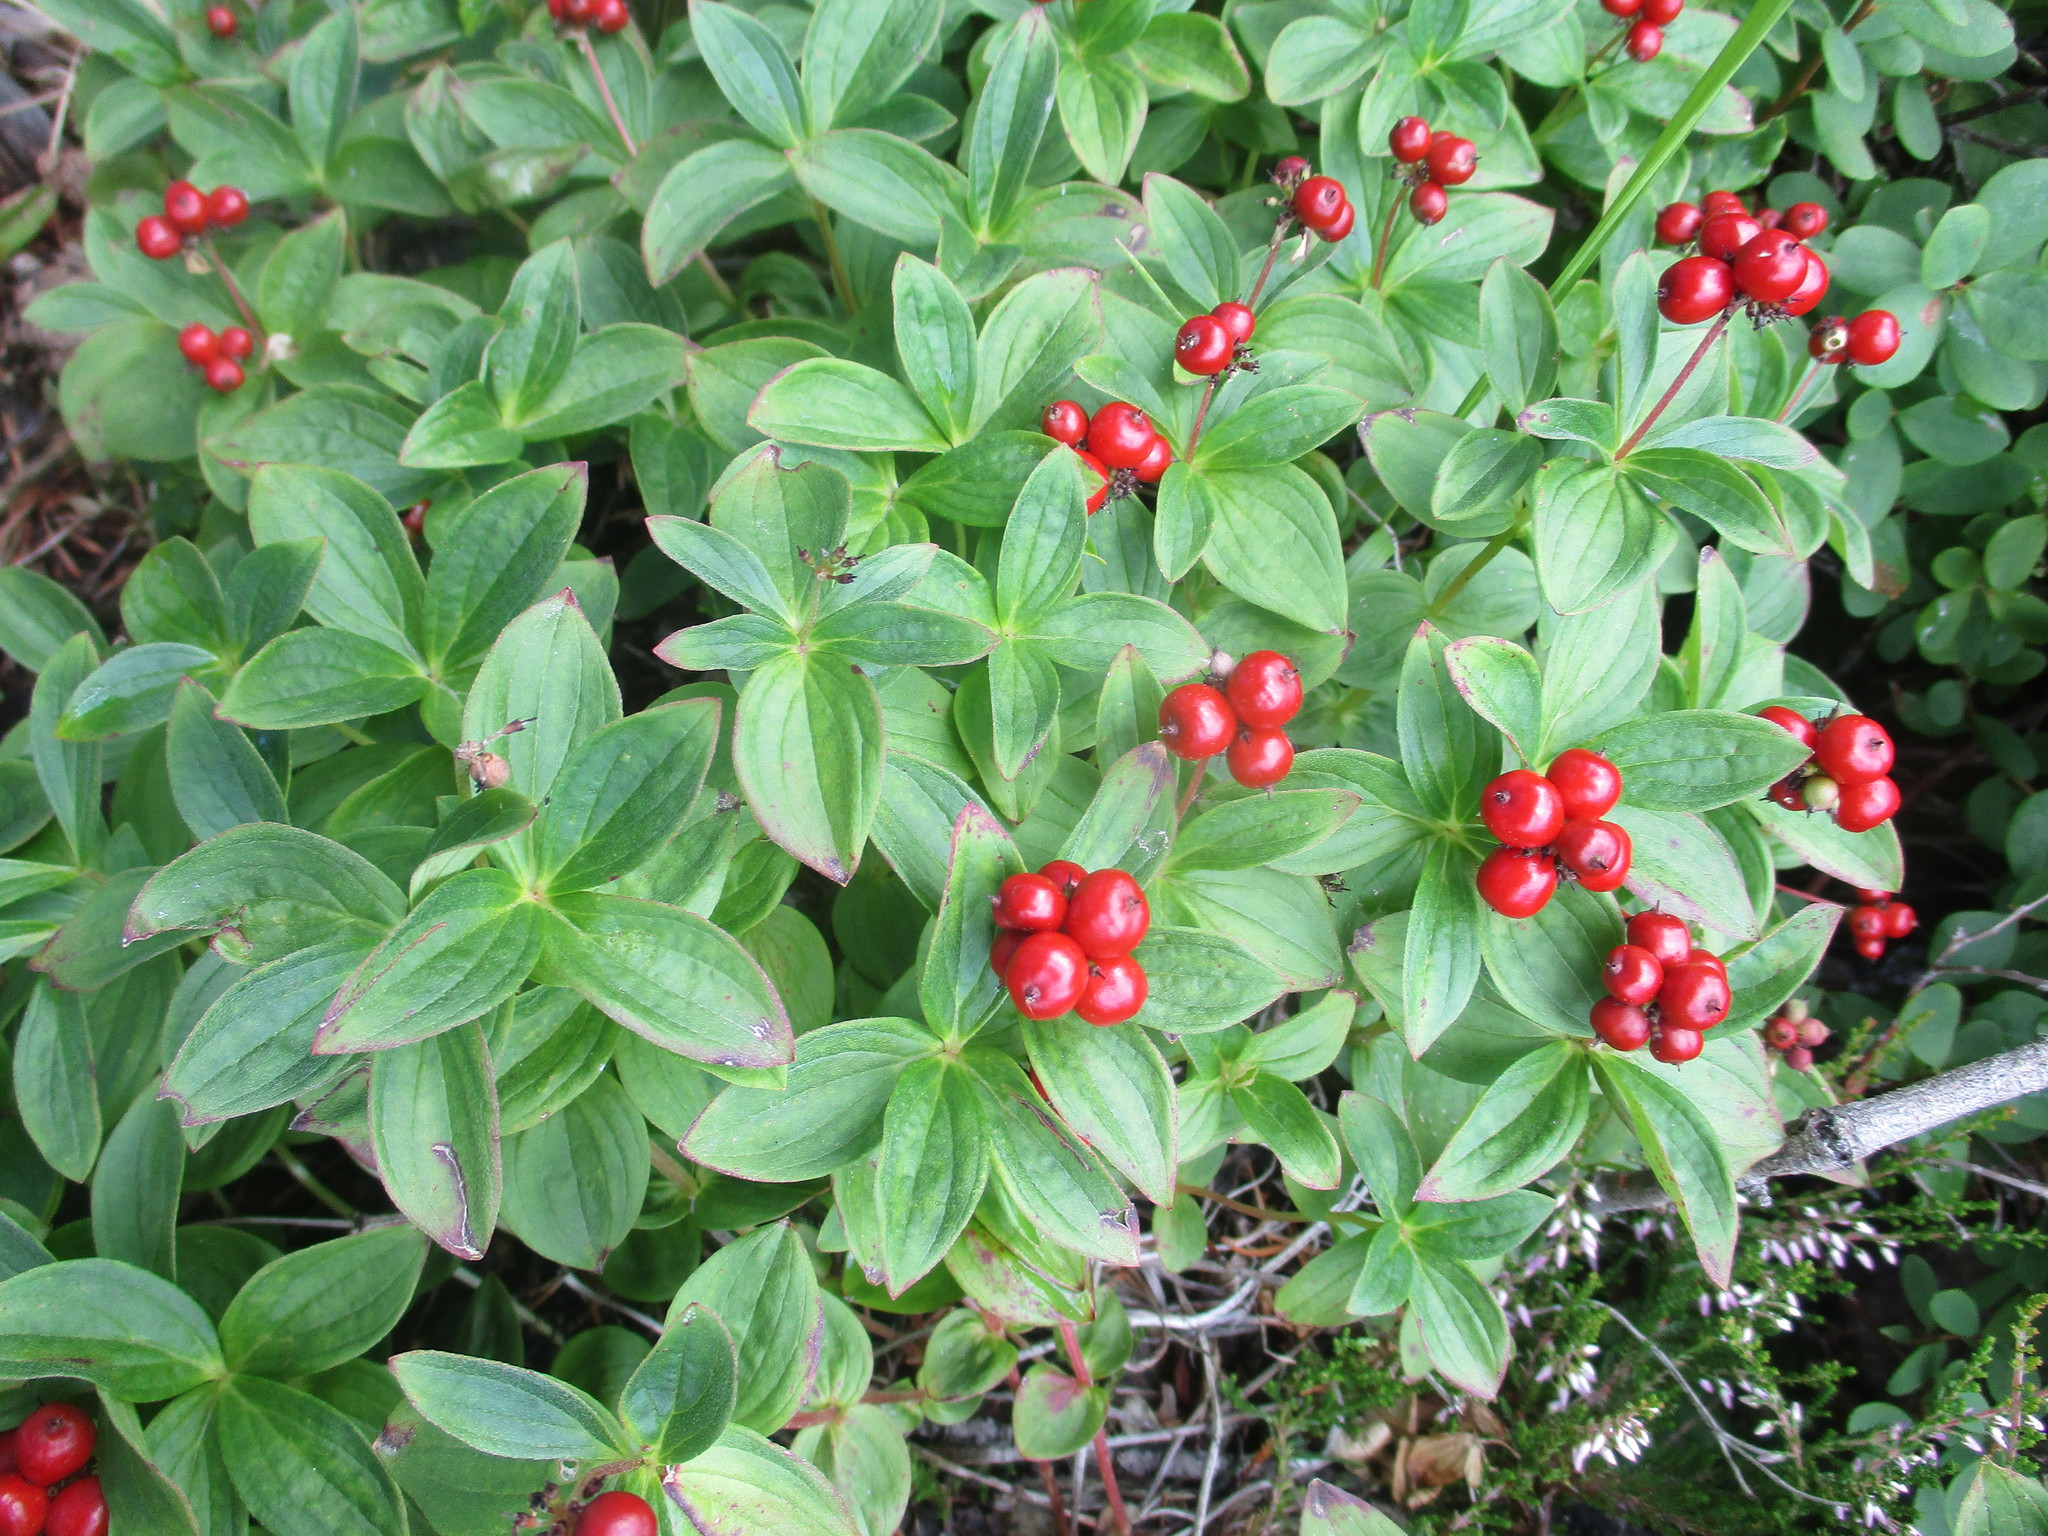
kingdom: Plantae
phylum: Tracheophyta
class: Magnoliopsida
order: Cornales
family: Cornaceae
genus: Cornus
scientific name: Cornus suecica
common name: Dwarf cornel
